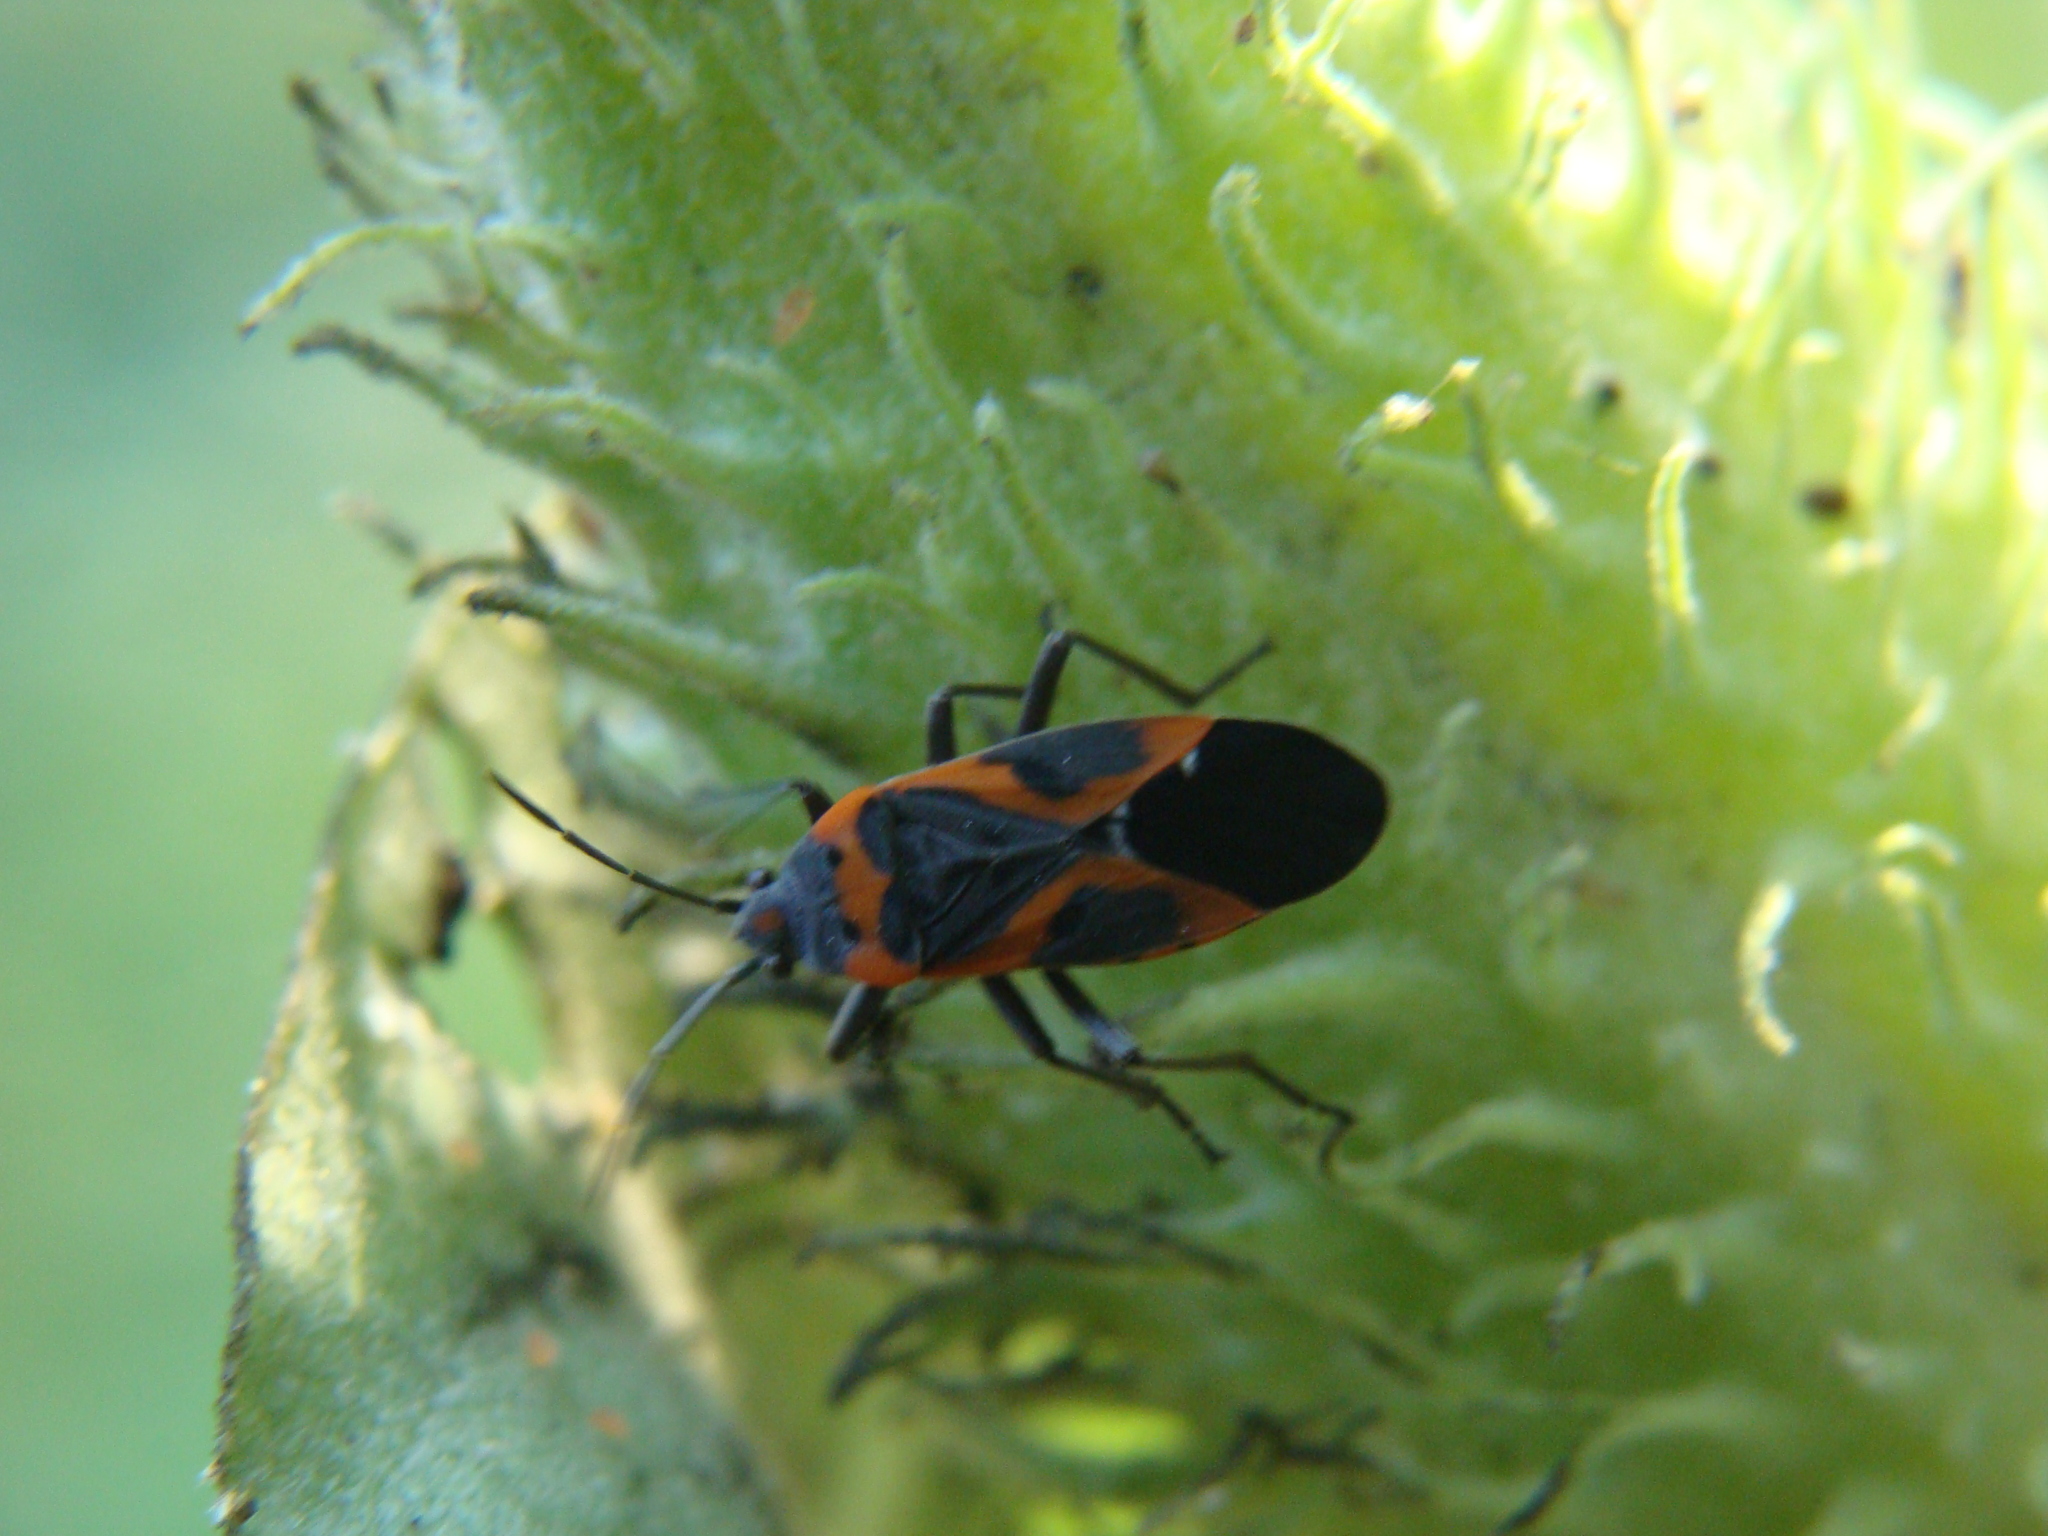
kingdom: Animalia
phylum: Arthropoda
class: Insecta
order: Hemiptera
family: Lygaeidae
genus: Lygaeus
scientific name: Lygaeus kalmii
